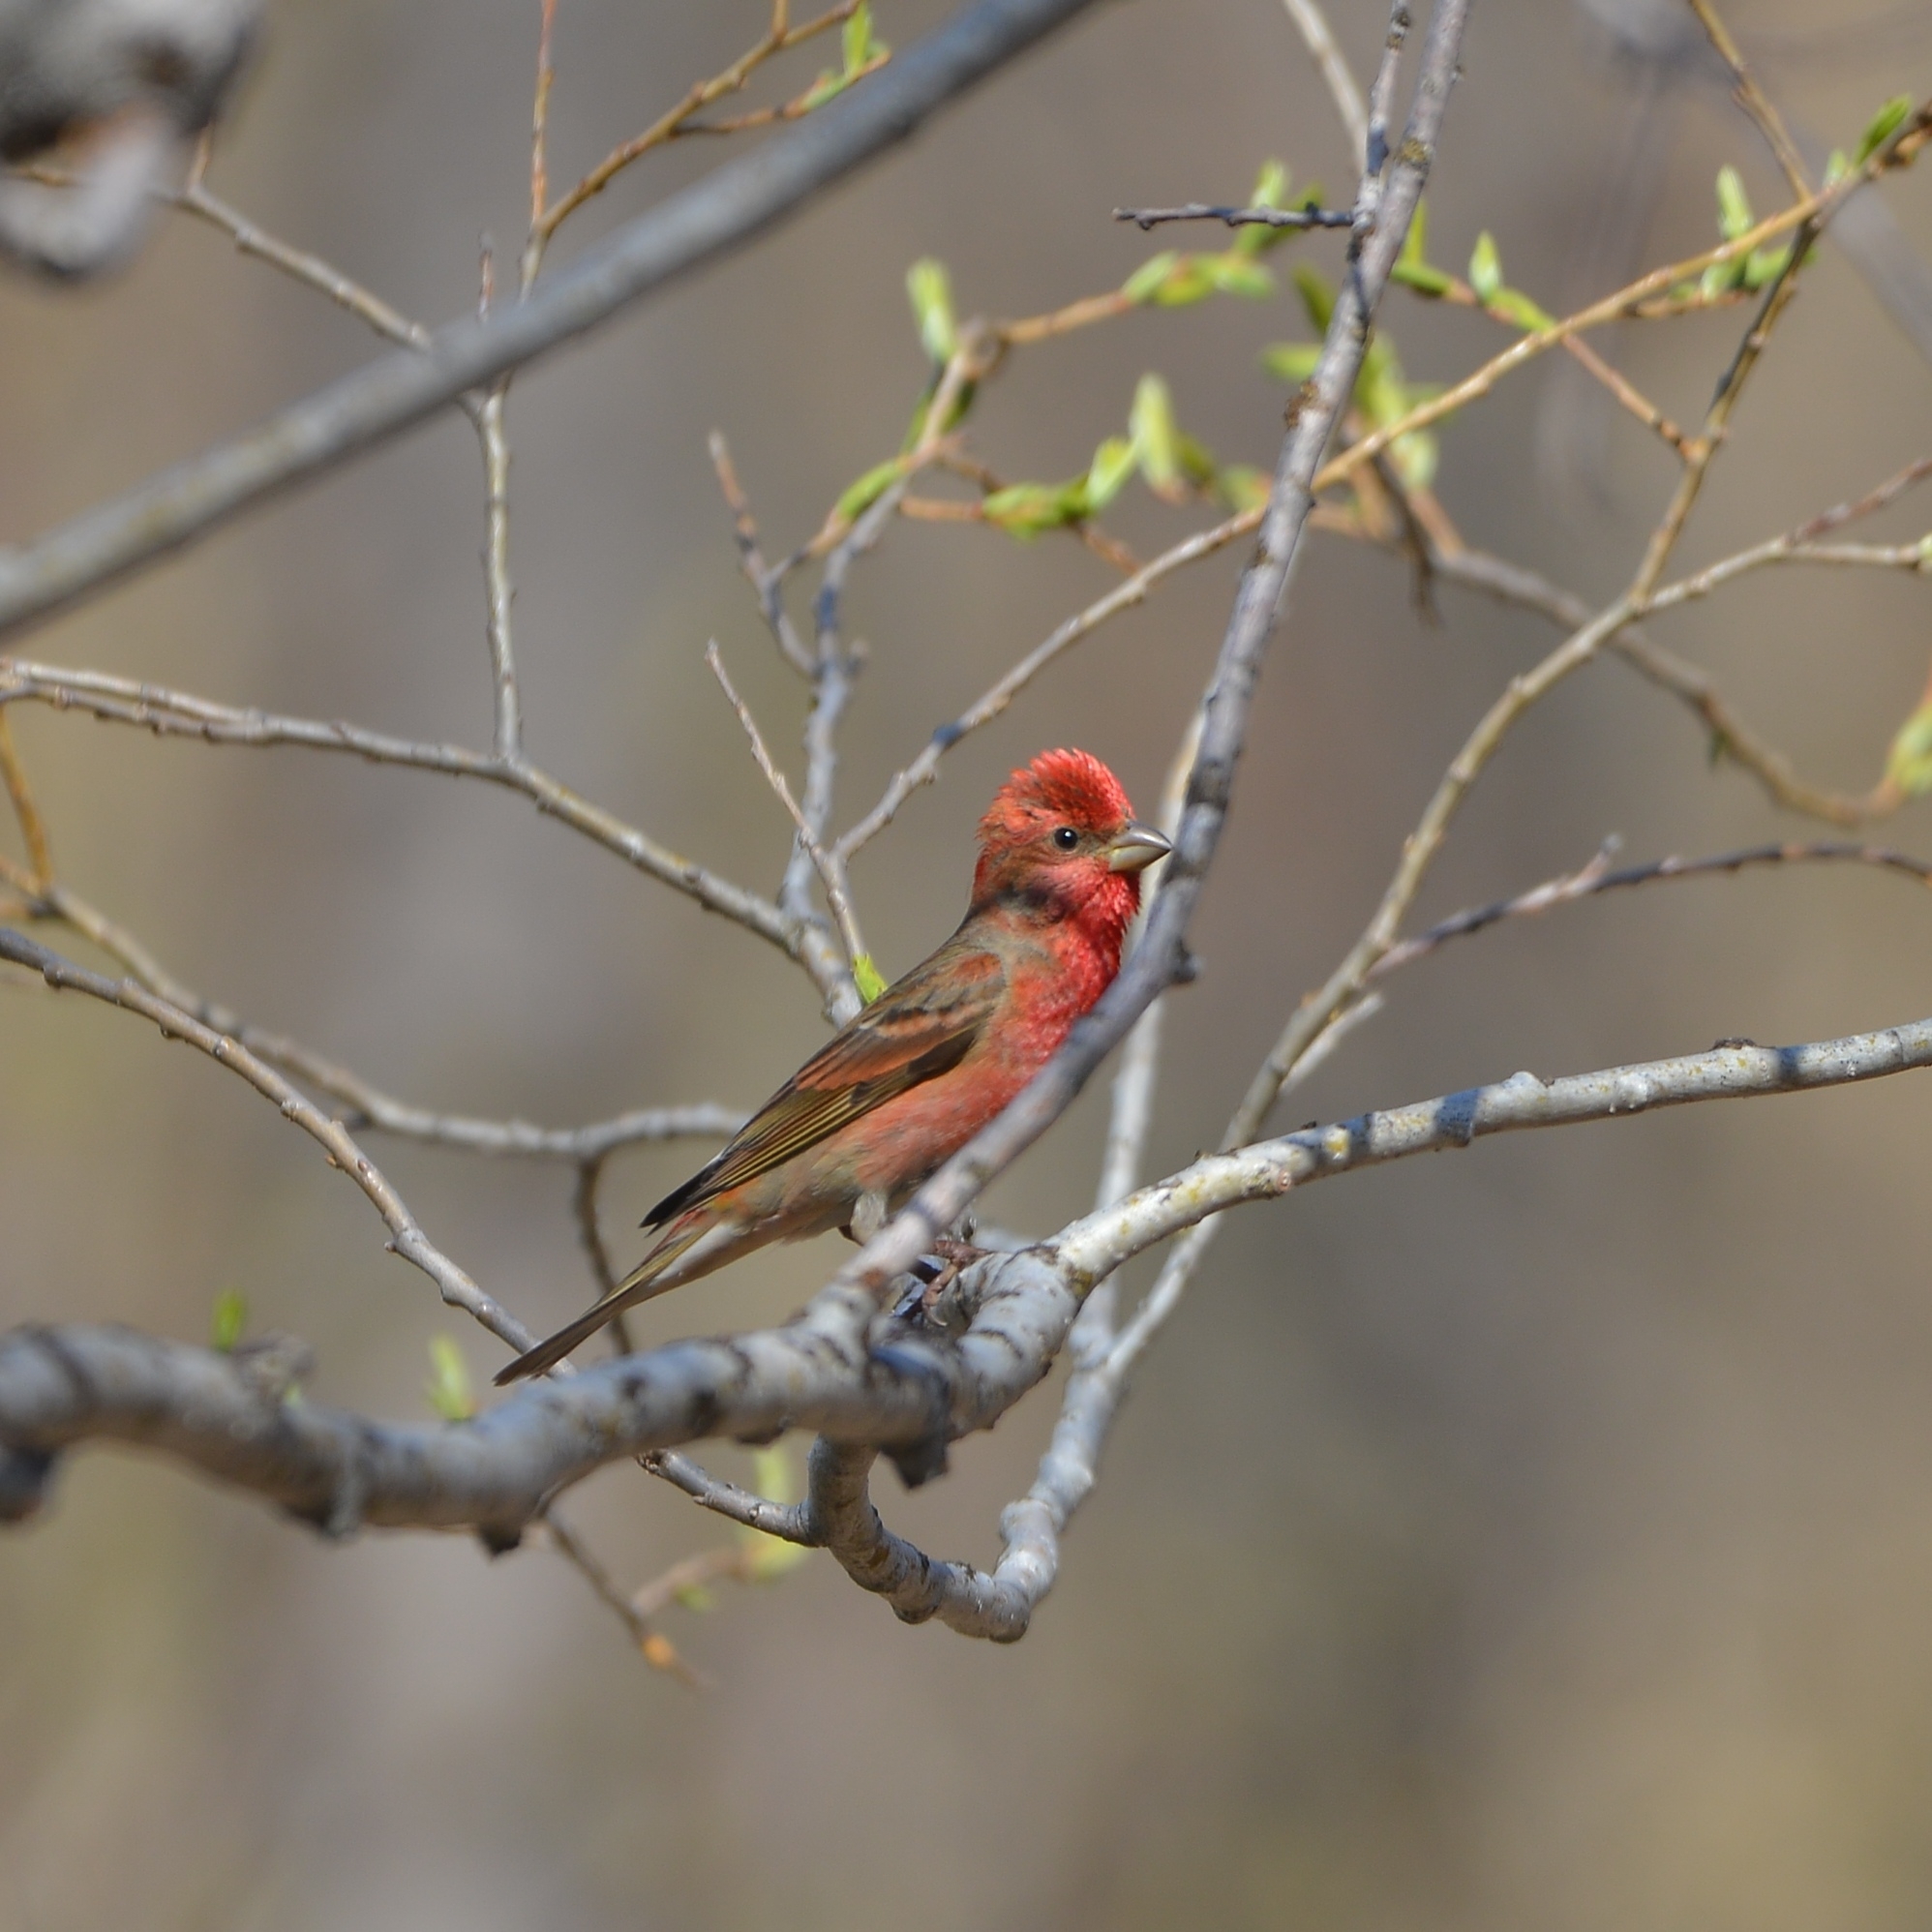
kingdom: Animalia
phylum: Chordata
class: Aves
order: Passeriformes
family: Fringillidae
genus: Carpodacus
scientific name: Carpodacus erythrinus
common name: Common rosefinch
